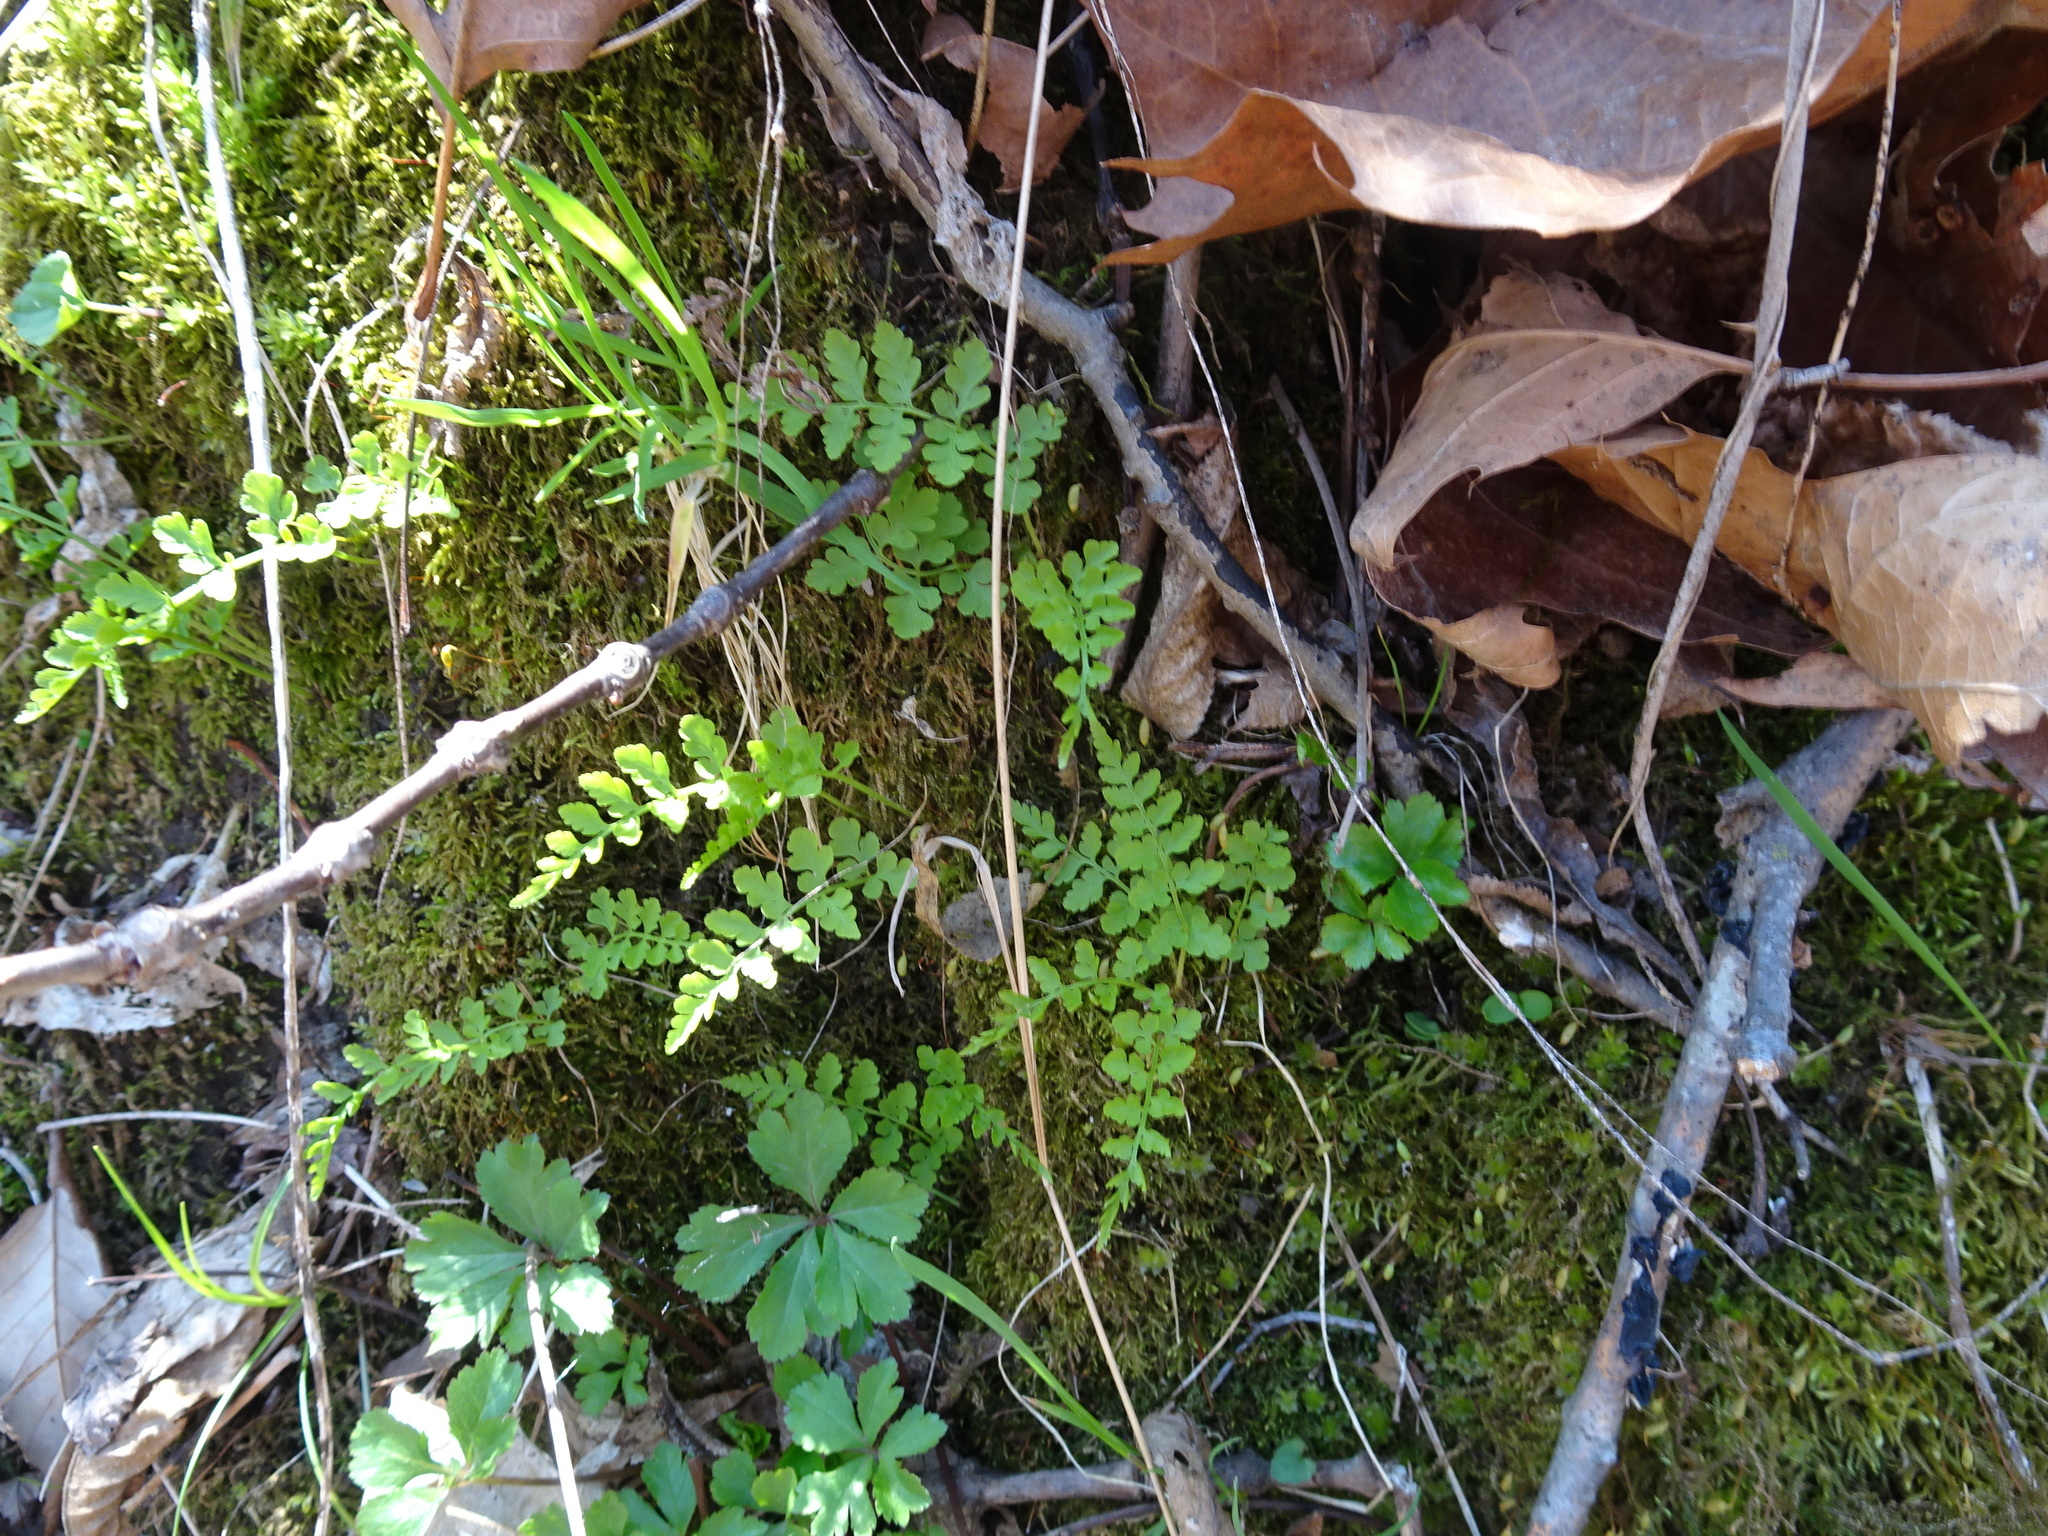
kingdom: Plantae
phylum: Tracheophyta
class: Polypodiopsida
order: Polypodiales
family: Cystopteridaceae
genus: Cystopteris
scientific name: Cystopteris protrusa
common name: Lowland brittle fern
